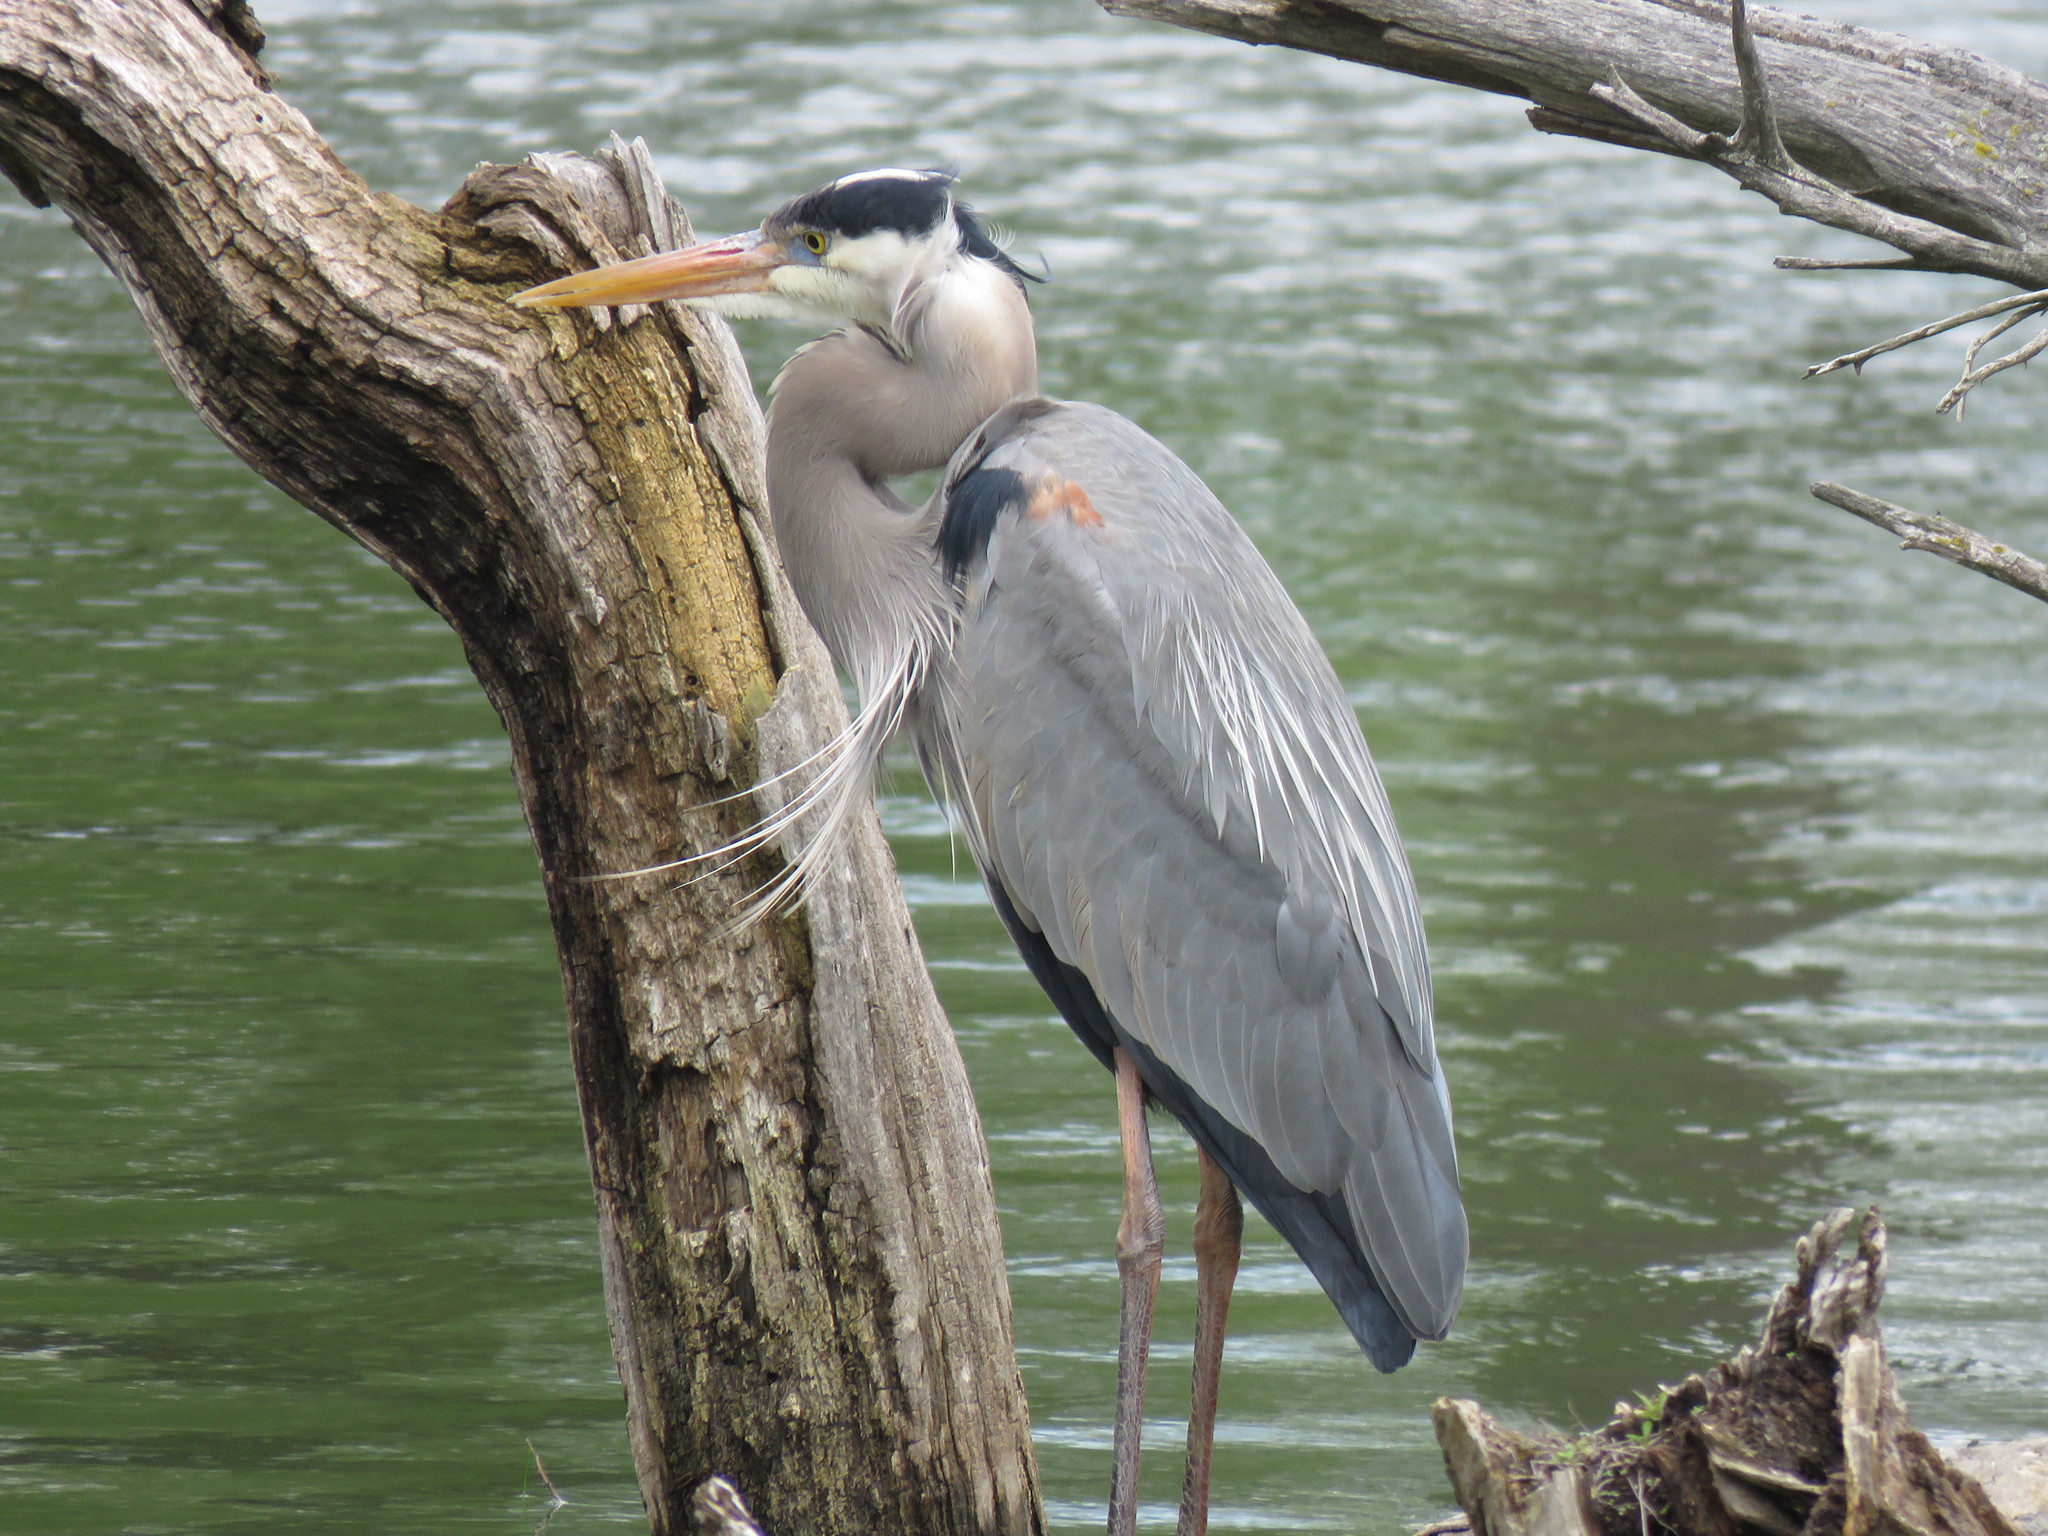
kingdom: Animalia
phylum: Chordata
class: Aves
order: Pelecaniformes
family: Ardeidae
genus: Ardea
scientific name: Ardea herodias
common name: Great blue heron
